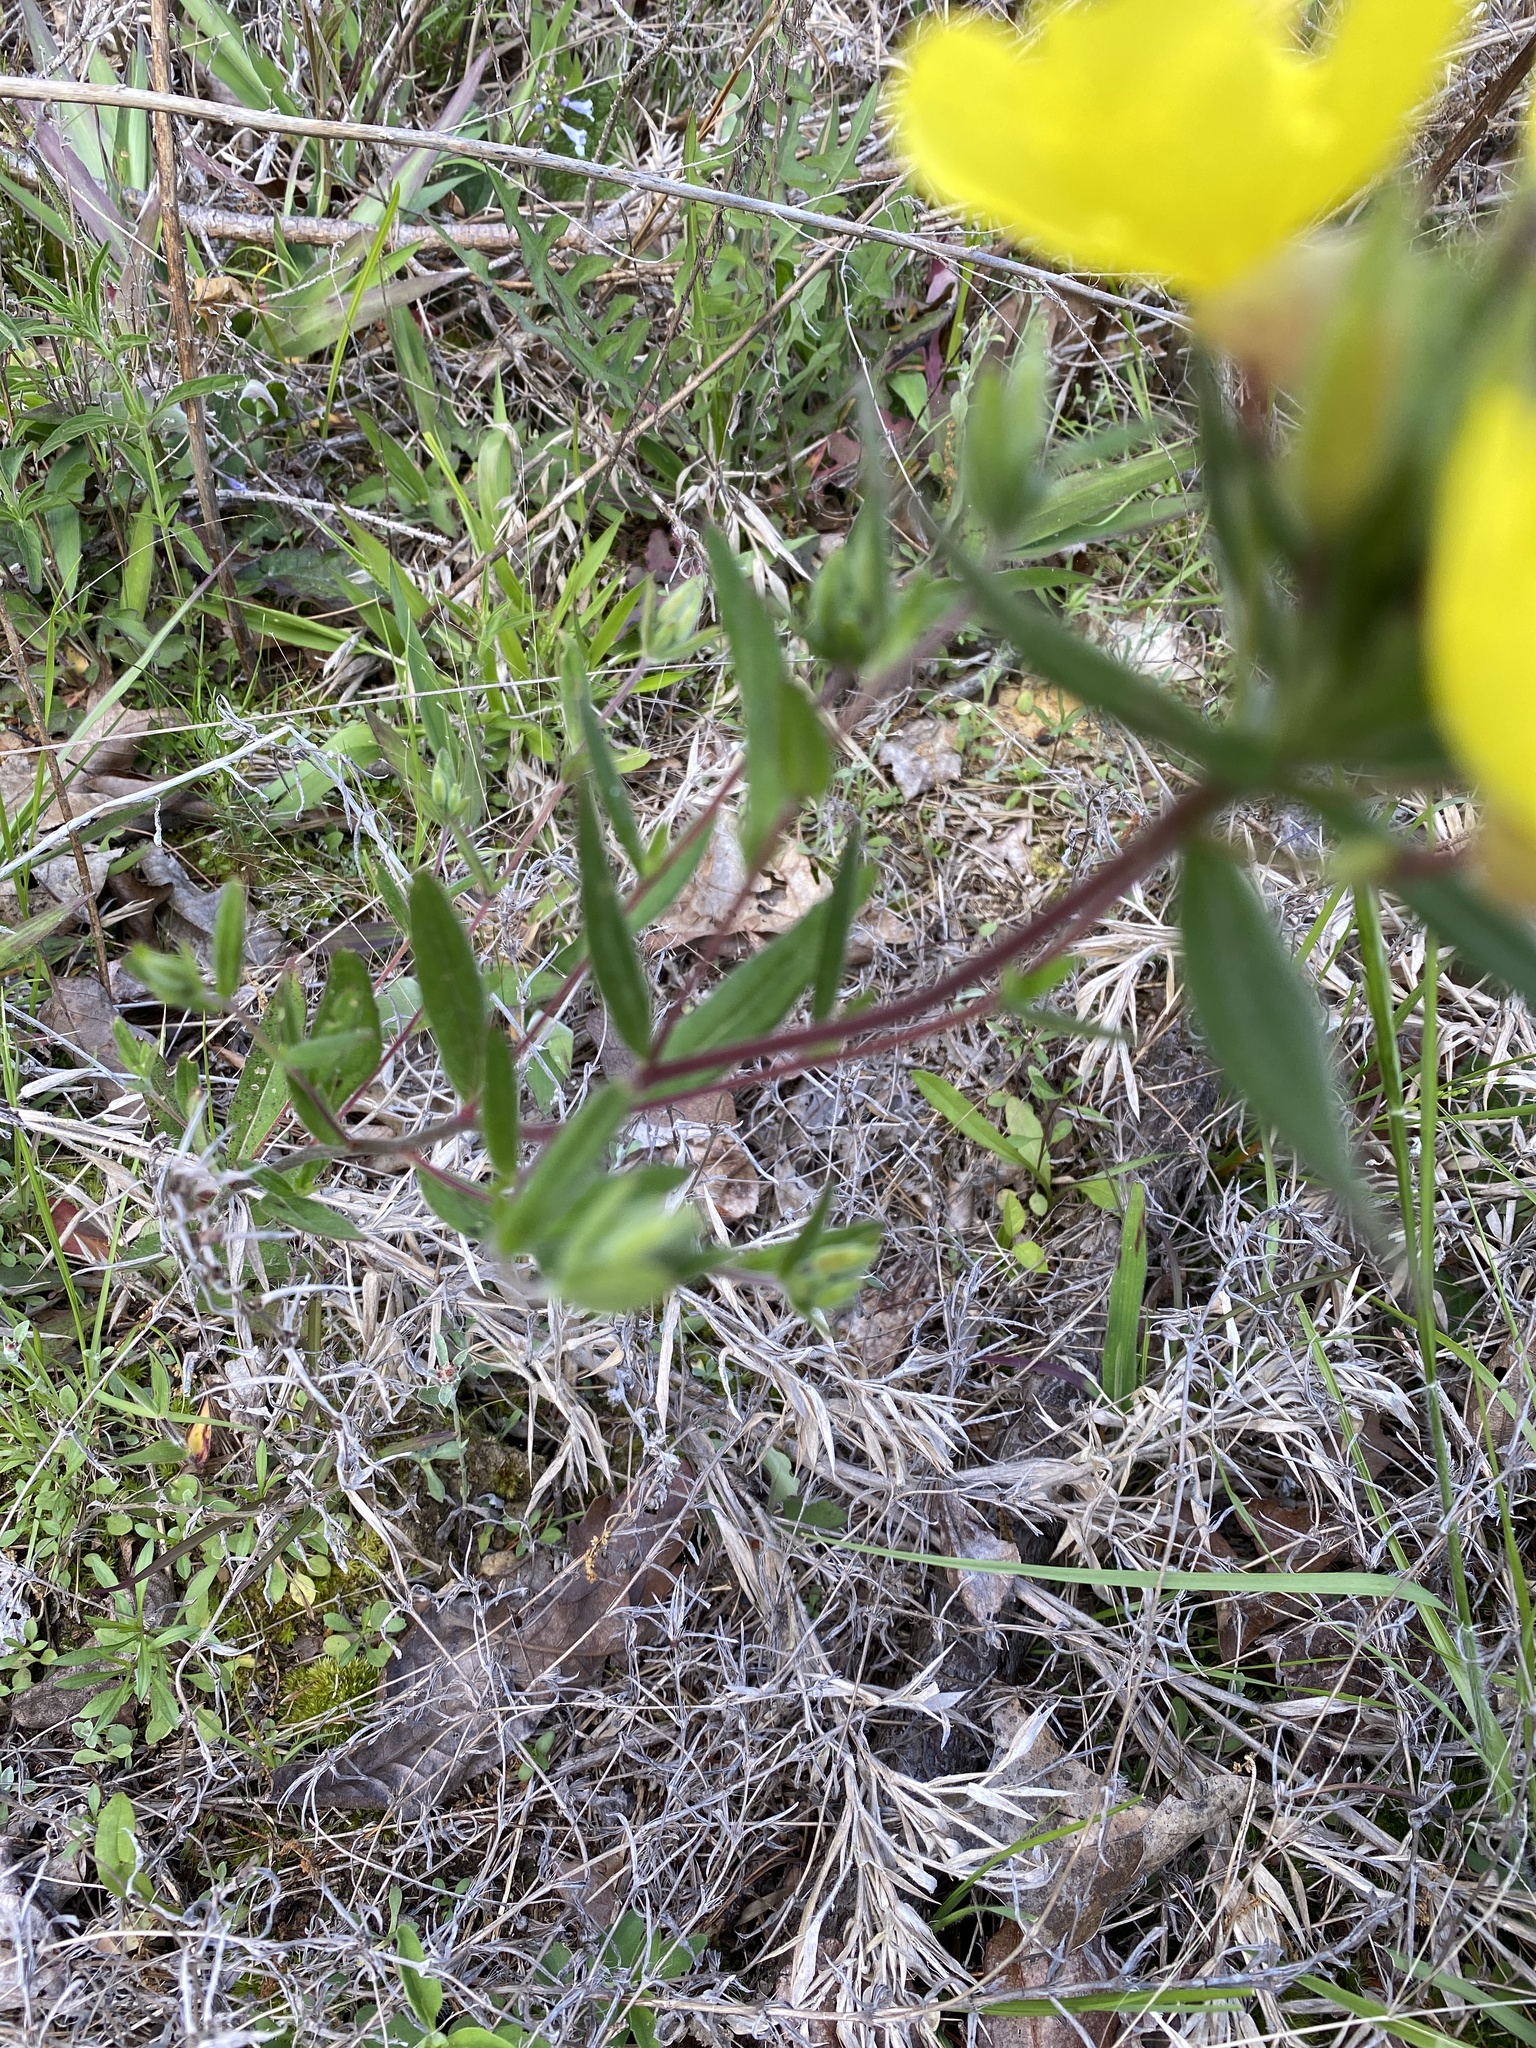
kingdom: Plantae
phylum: Tracheophyta
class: Magnoliopsida
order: Myrtales
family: Onagraceae
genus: Oenothera
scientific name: Oenothera fruticosa
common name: Southern sundrops
